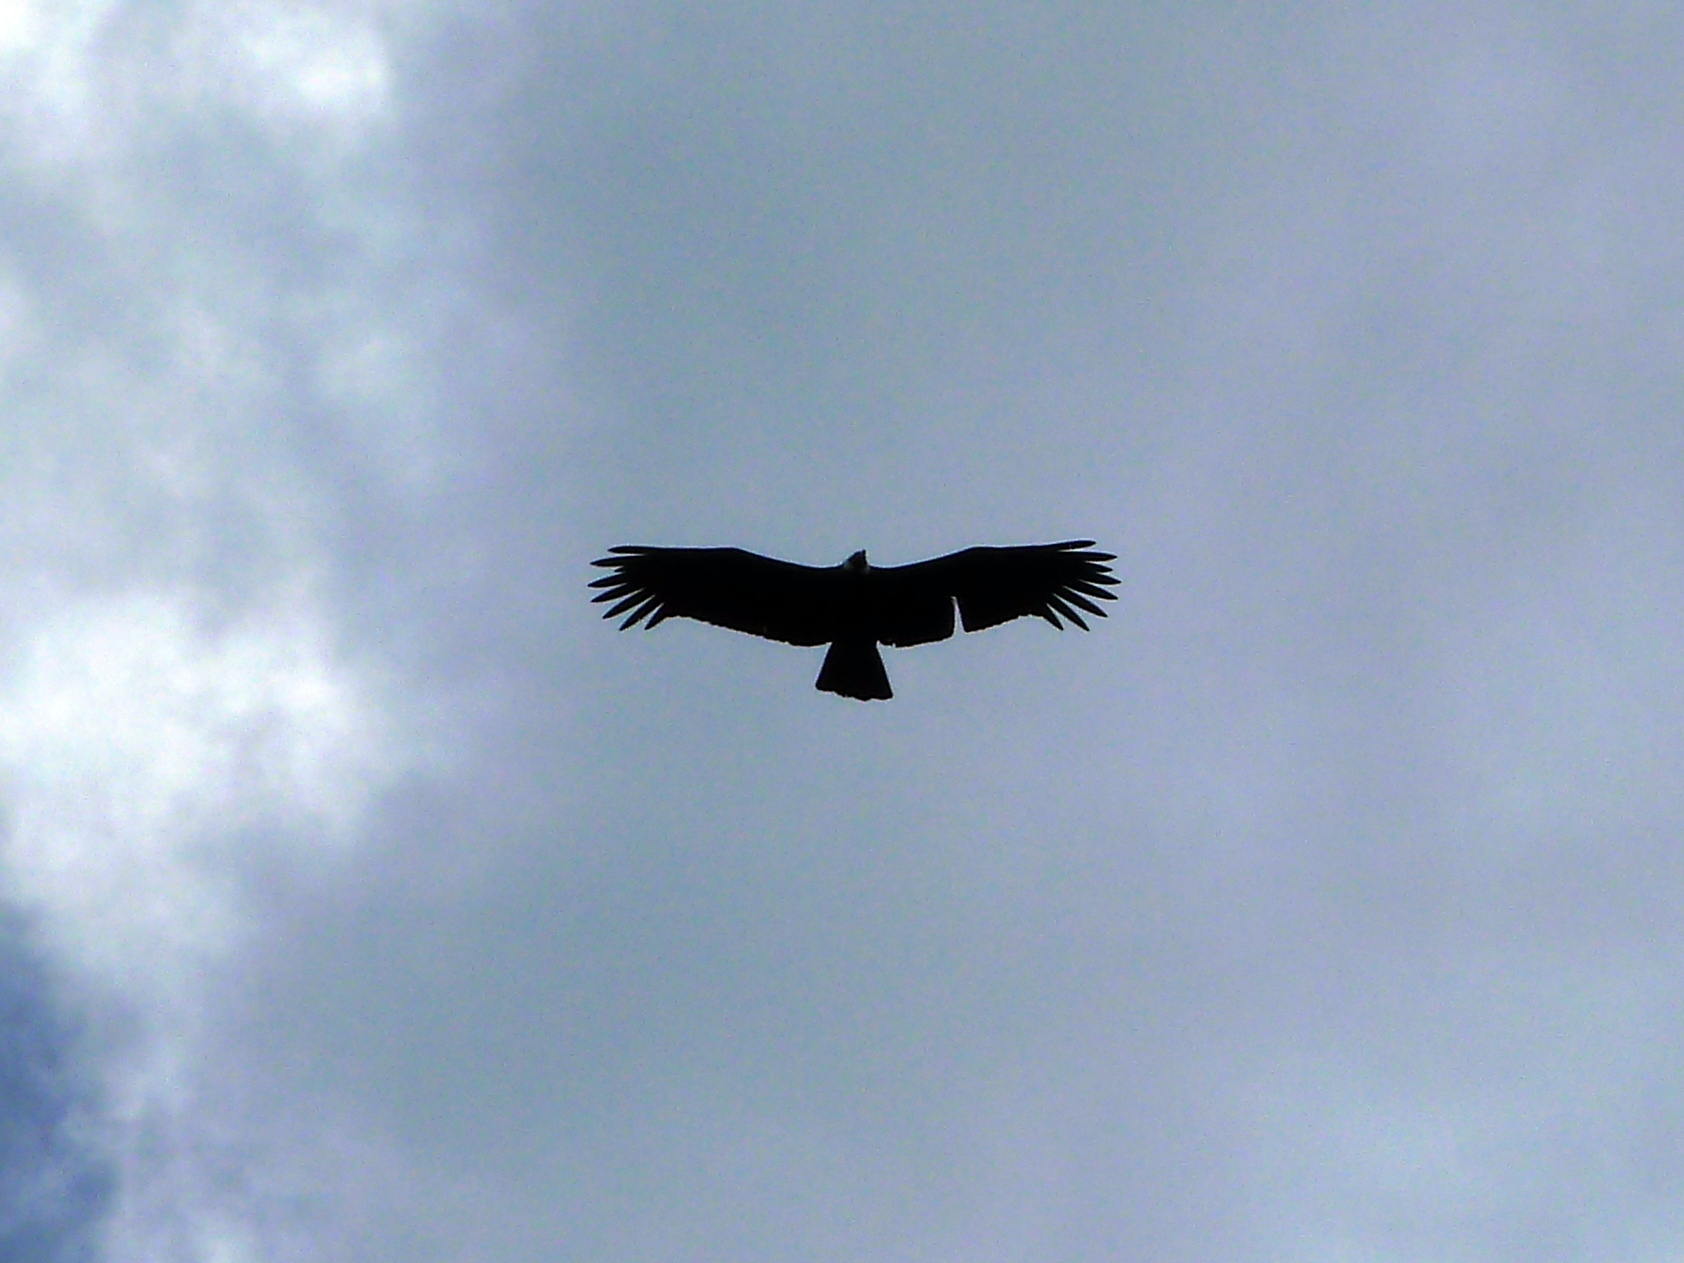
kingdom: Animalia
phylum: Chordata
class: Aves
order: Accipitriformes
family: Cathartidae
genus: Vultur
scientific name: Vultur gryphus
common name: Andean condor
